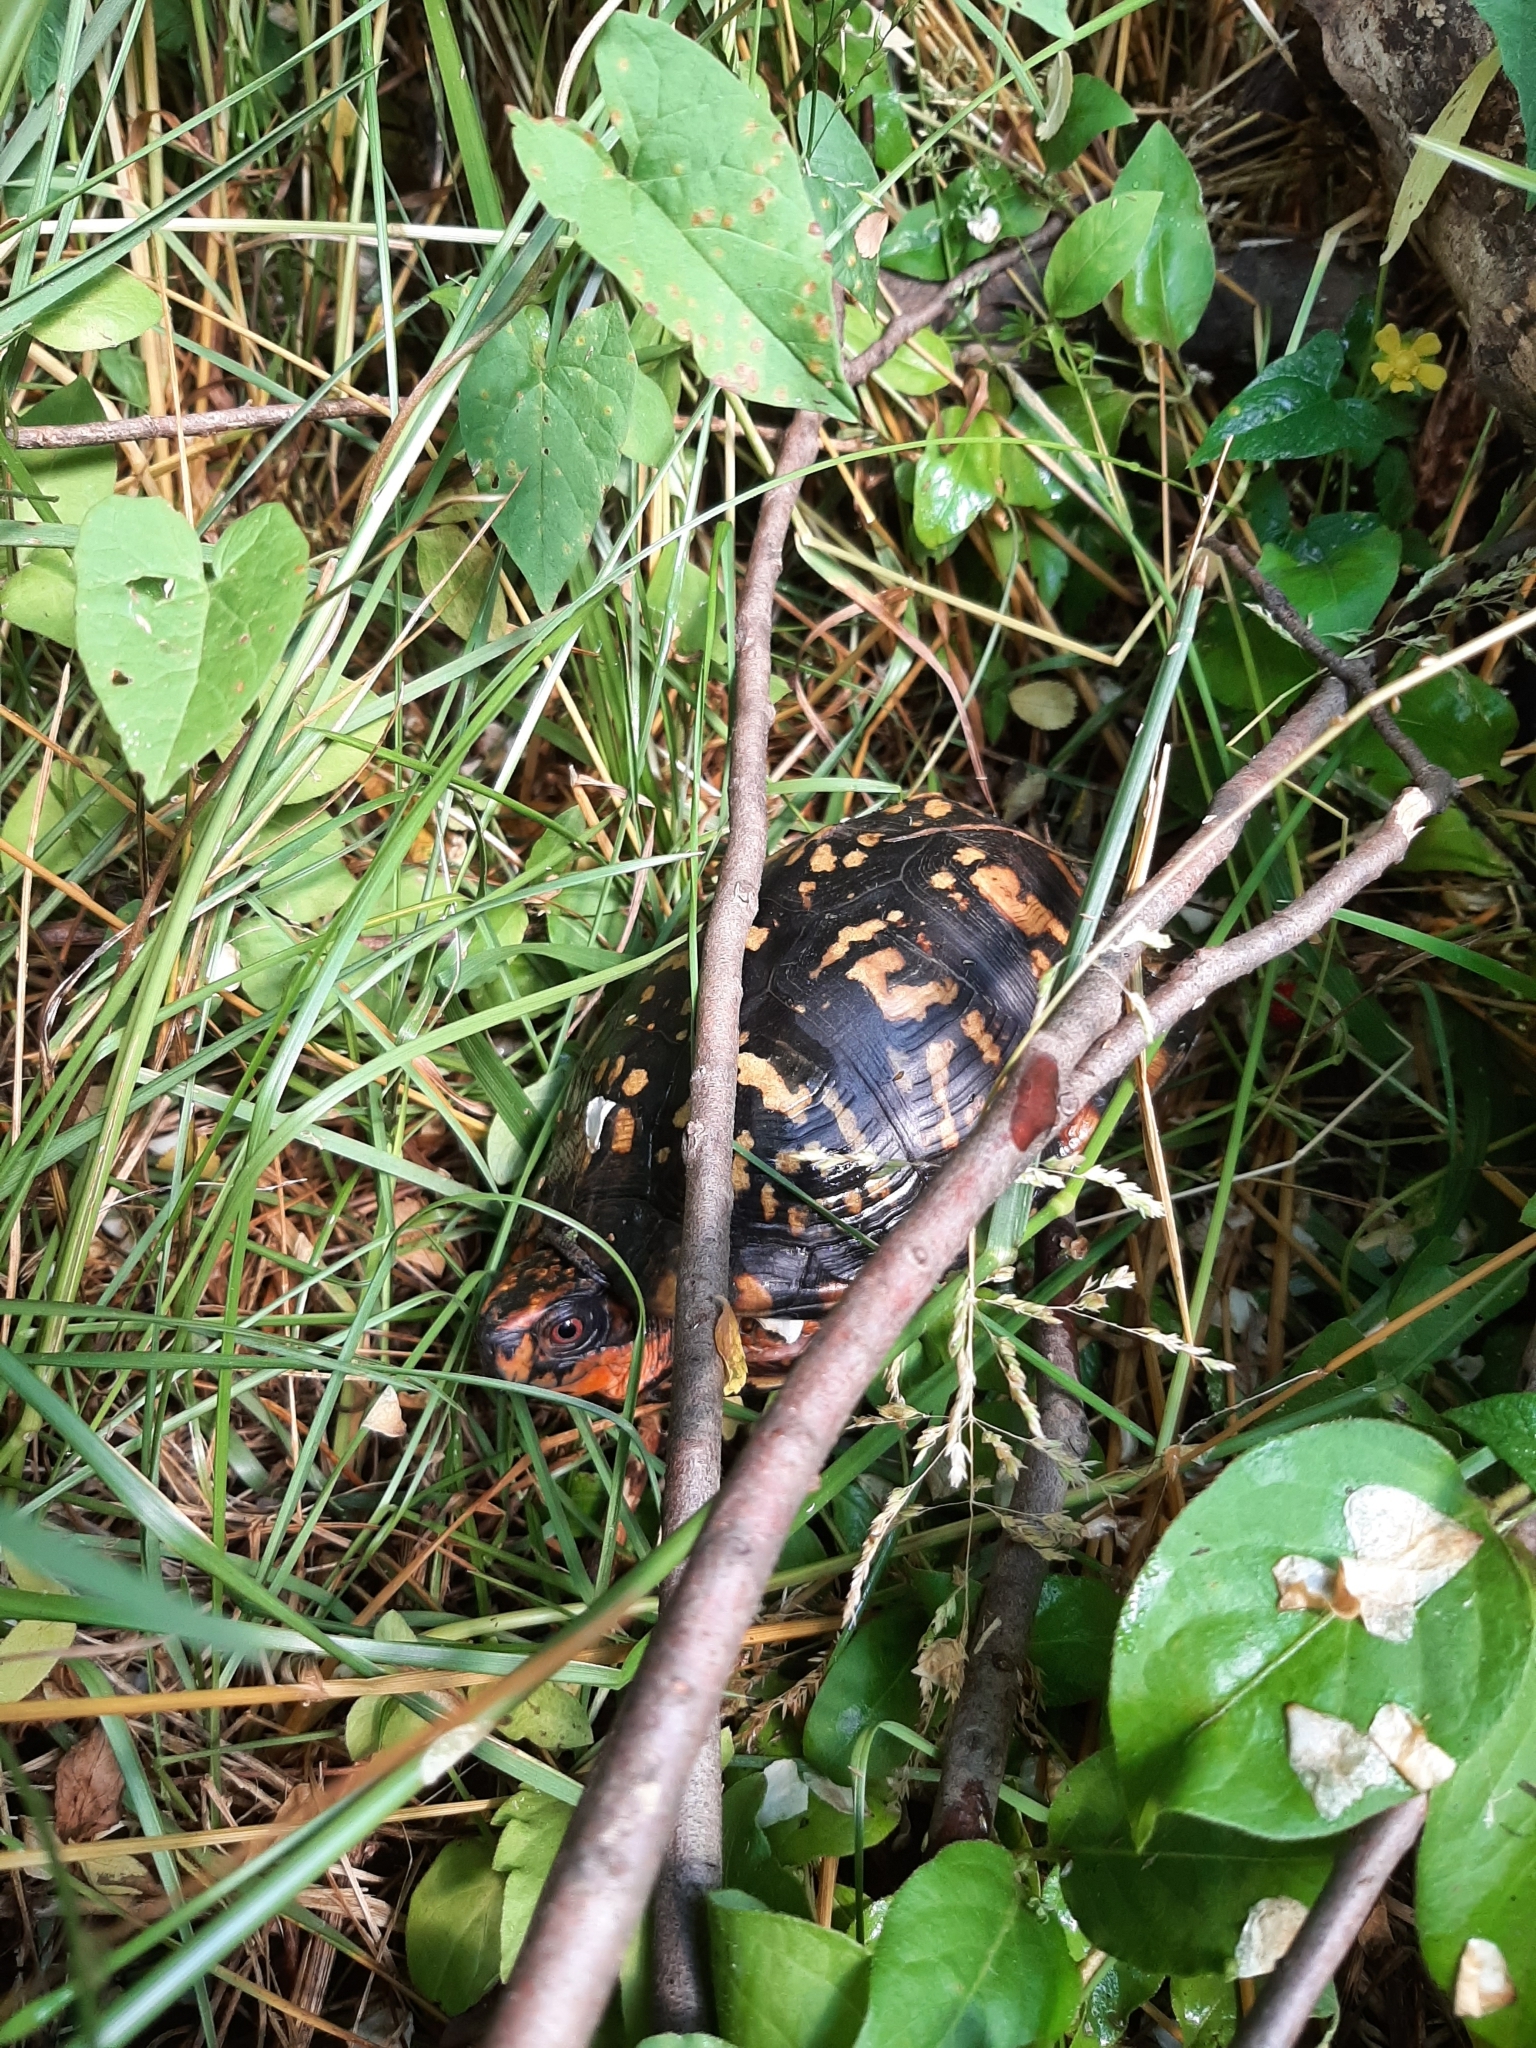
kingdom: Animalia
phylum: Chordata
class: Testudines
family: Emydidae
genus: Terrapene
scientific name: Terrapene carolina
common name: Common box turtle
